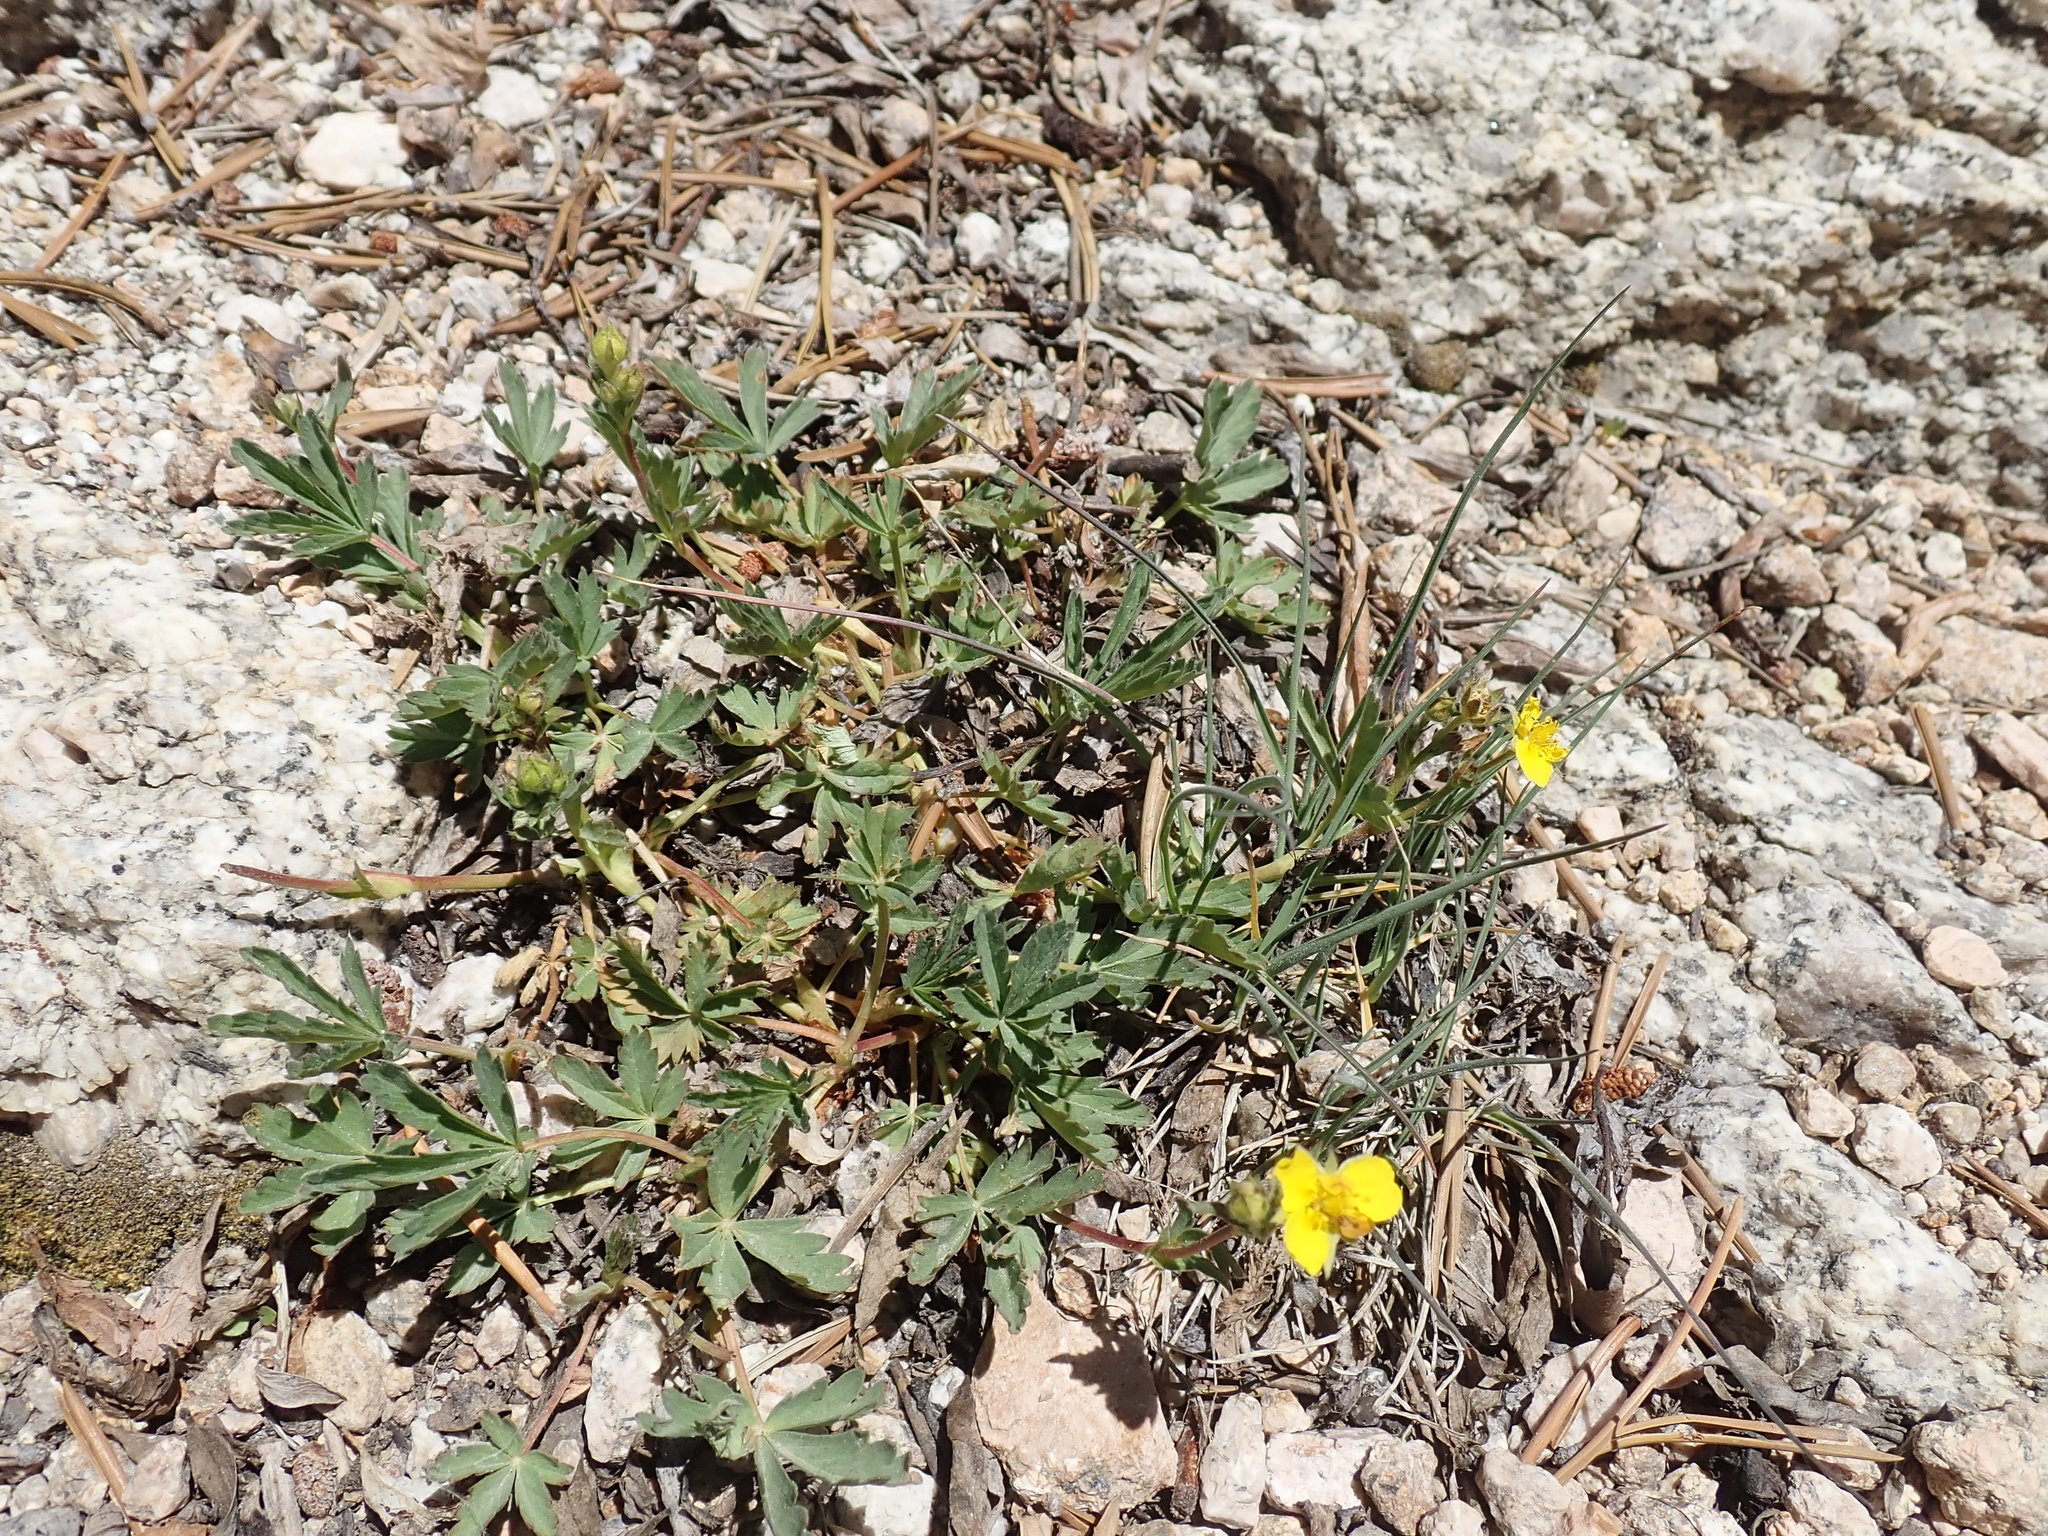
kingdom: Plantae
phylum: Tracheophyta
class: Magnoliopsida
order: Rosales
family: Rosaceae
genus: Potentilla
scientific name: Potentilla glaucophylla
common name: Blue-leaved cinquefoil
